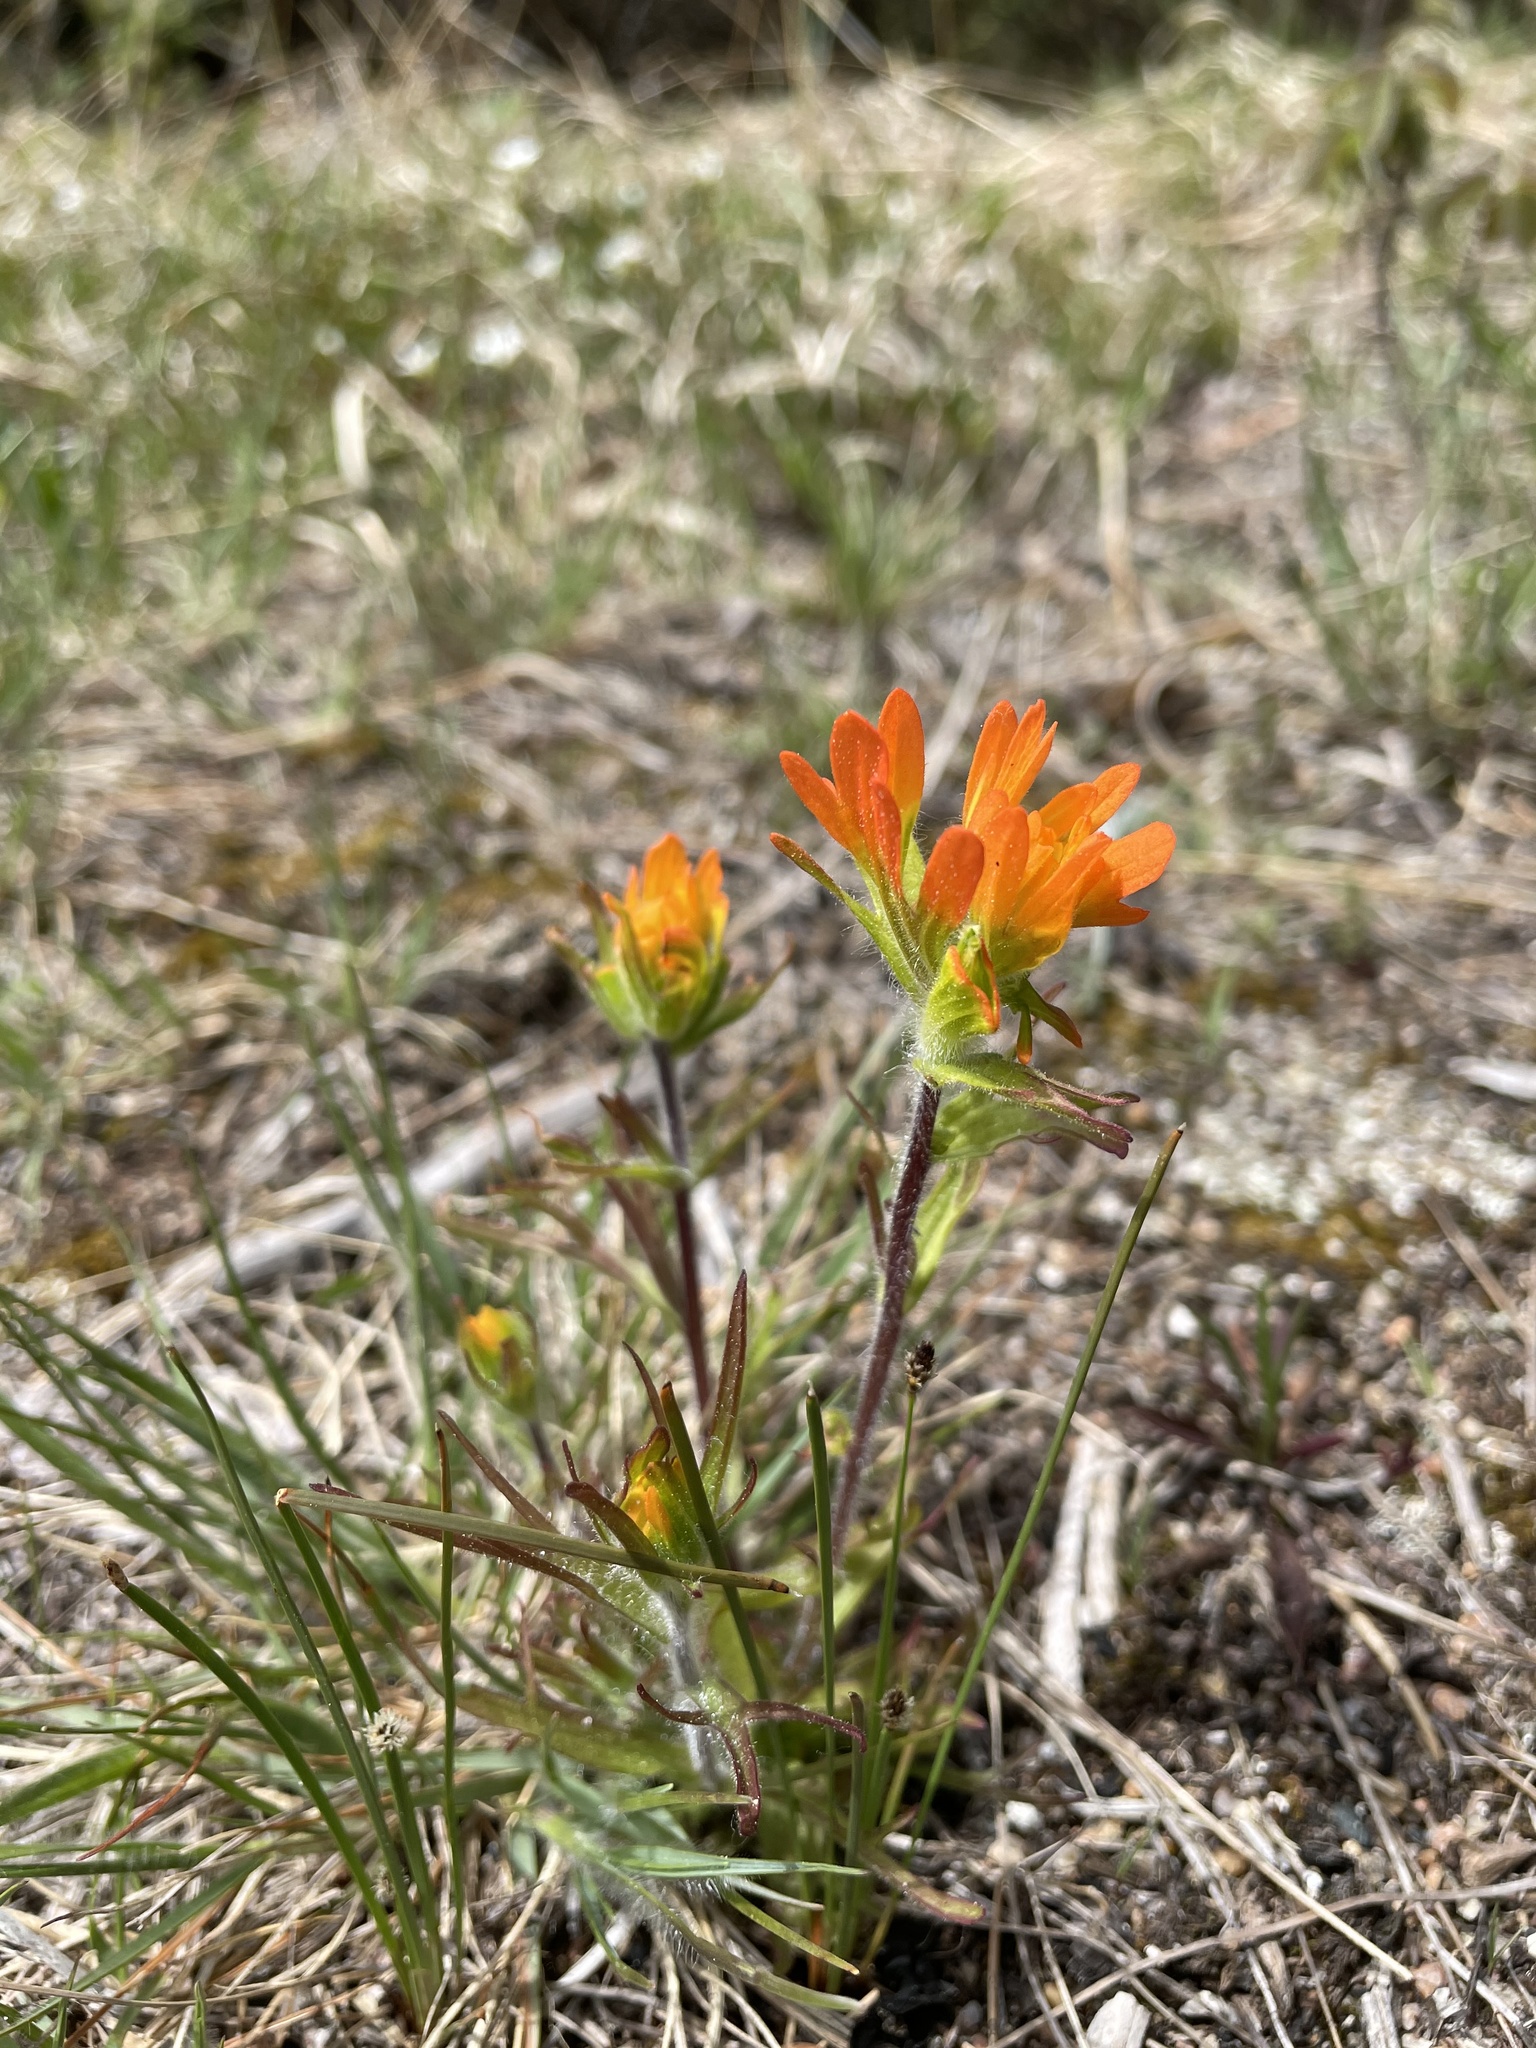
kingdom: Plantae
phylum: Tracheophyta
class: Magnoliopsida
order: Lamiales
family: Orobanchaceae
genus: Castilleja
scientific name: Castilleja coccinea
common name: Scarlet paintbrush
